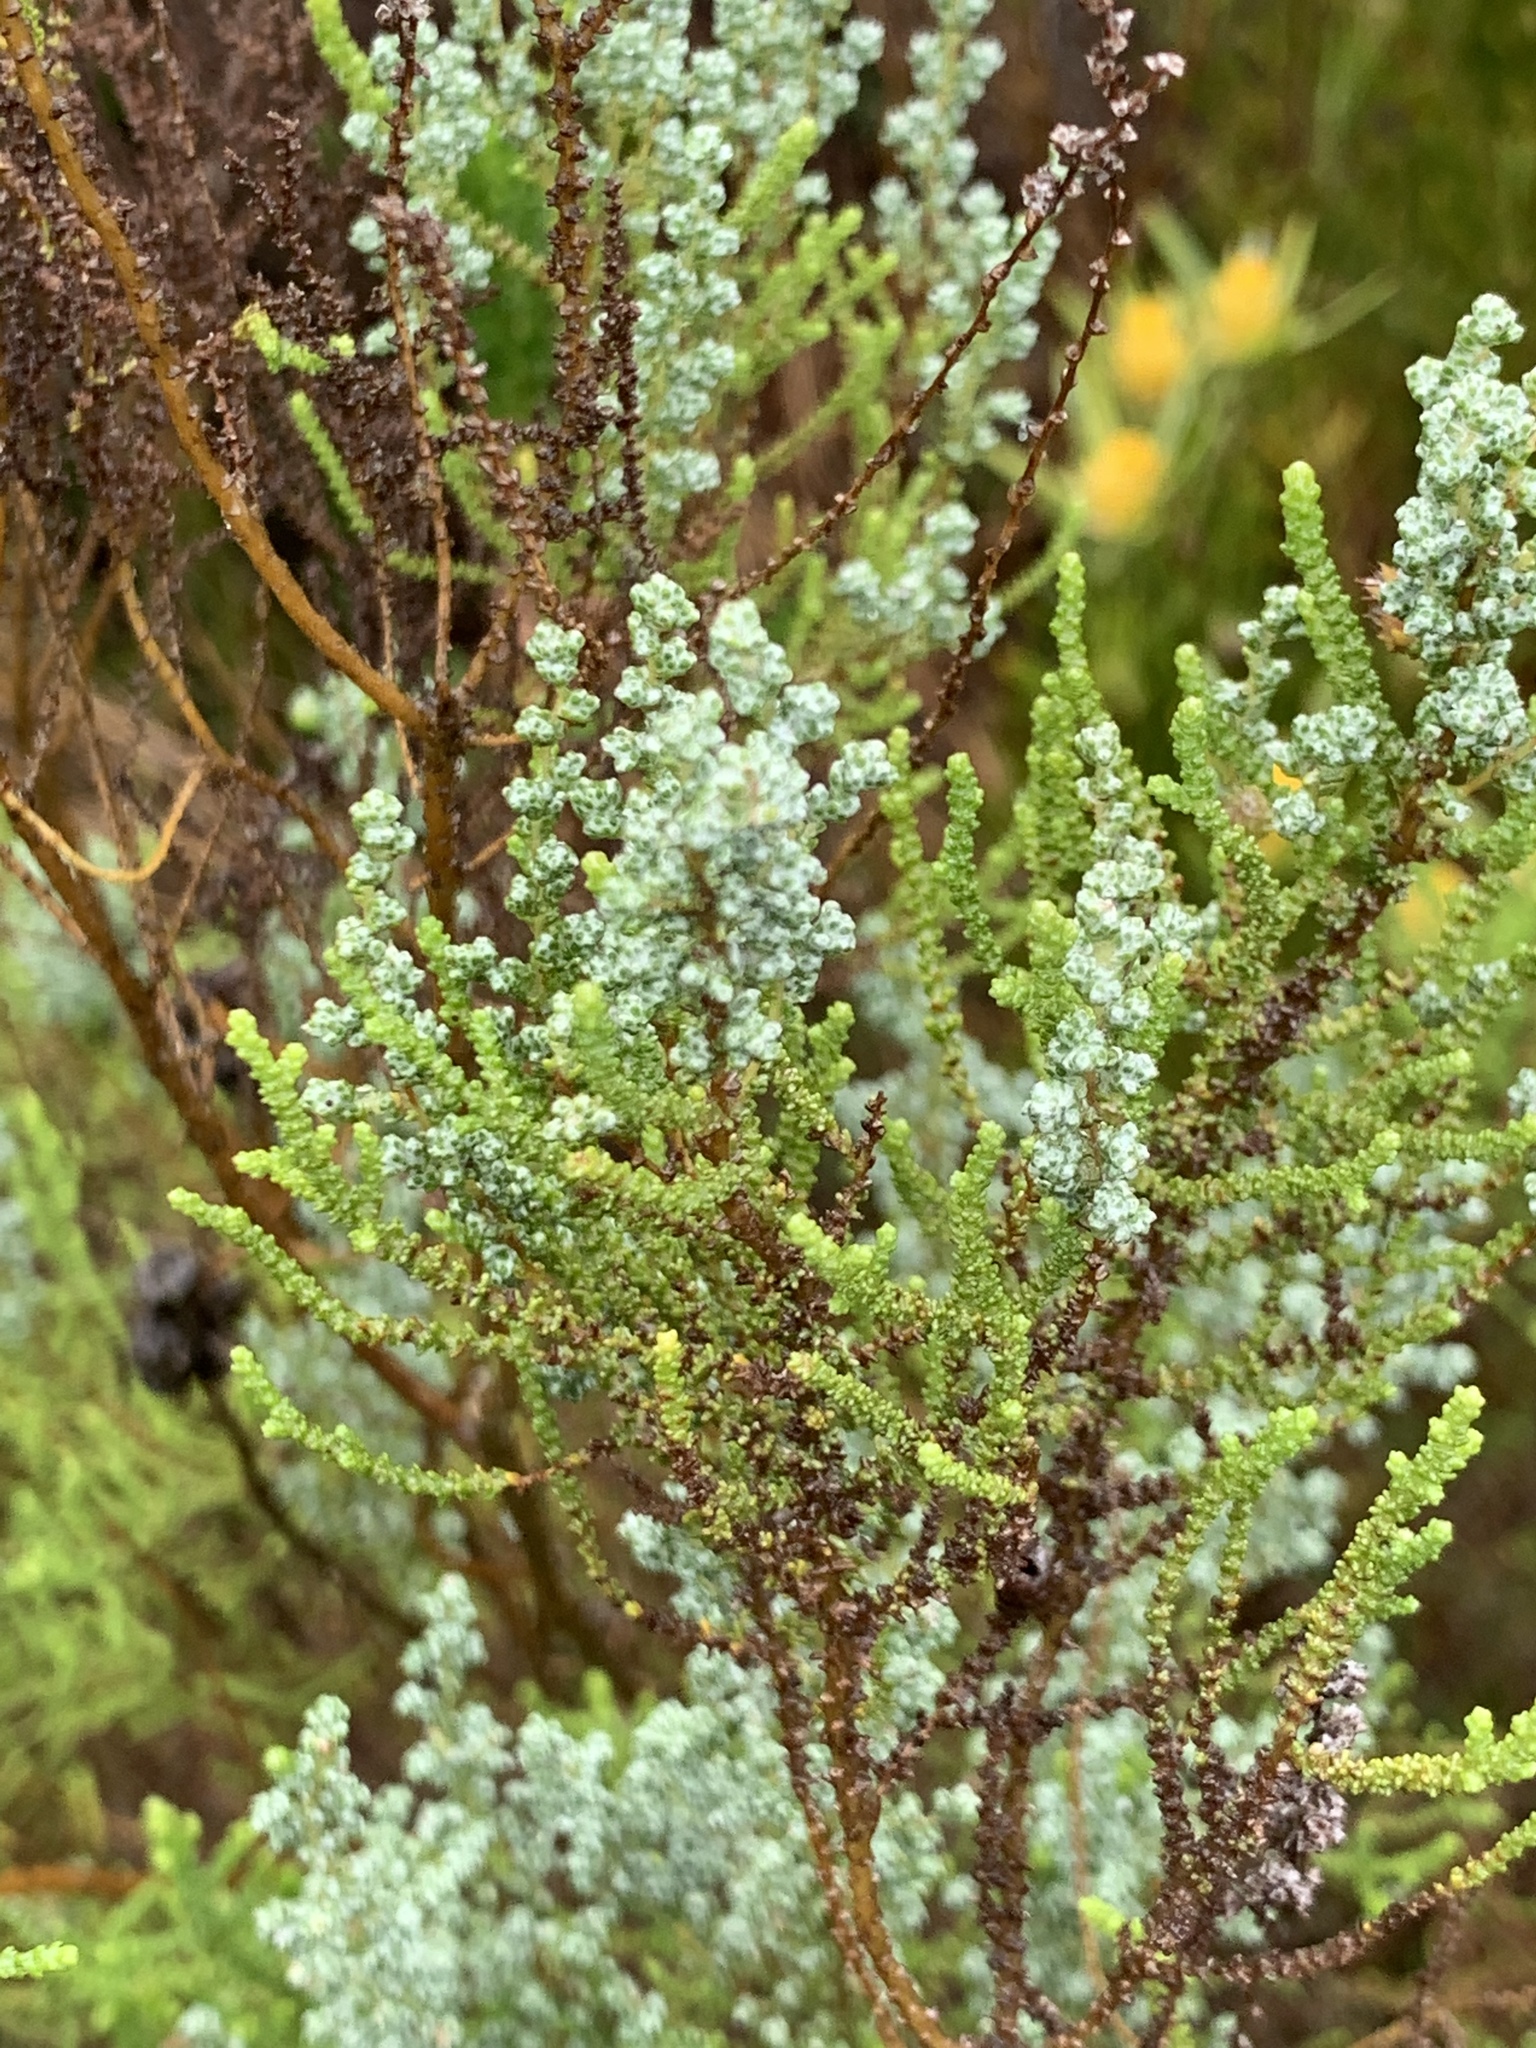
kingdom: Plantae
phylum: Tracheophyta
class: Magnoliopsida
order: Asterales
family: Asteraceae
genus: Phaenocoma
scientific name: Phaenocoma prolifera
